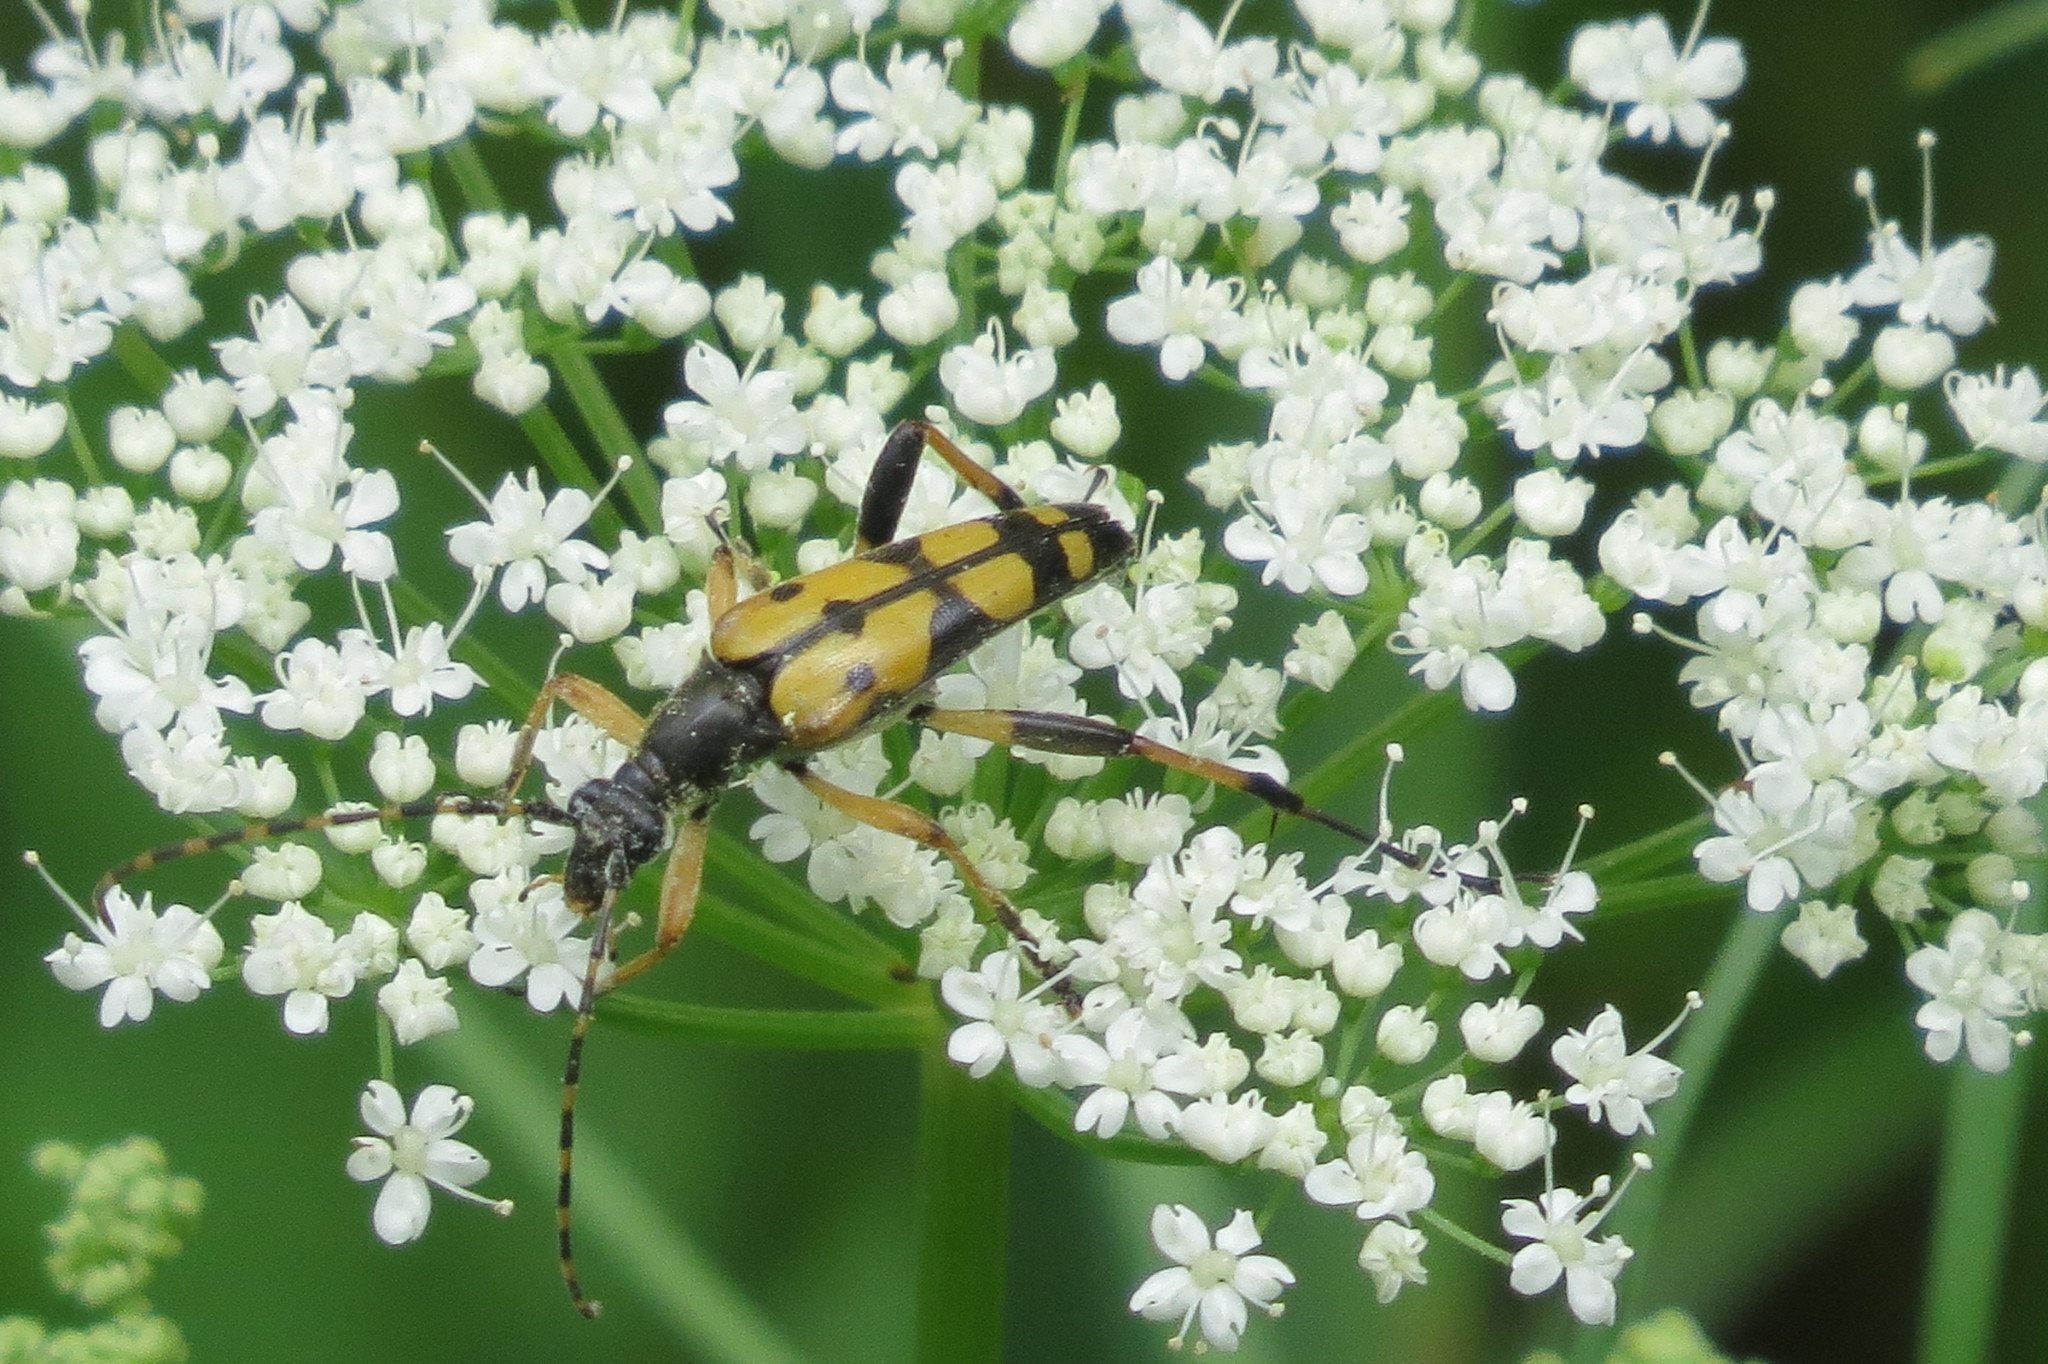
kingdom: Animalia
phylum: Arthropoda
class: Insecta
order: Coleoptera
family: Cerambycidae
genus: Rutpela
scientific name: Rutpela maculata
